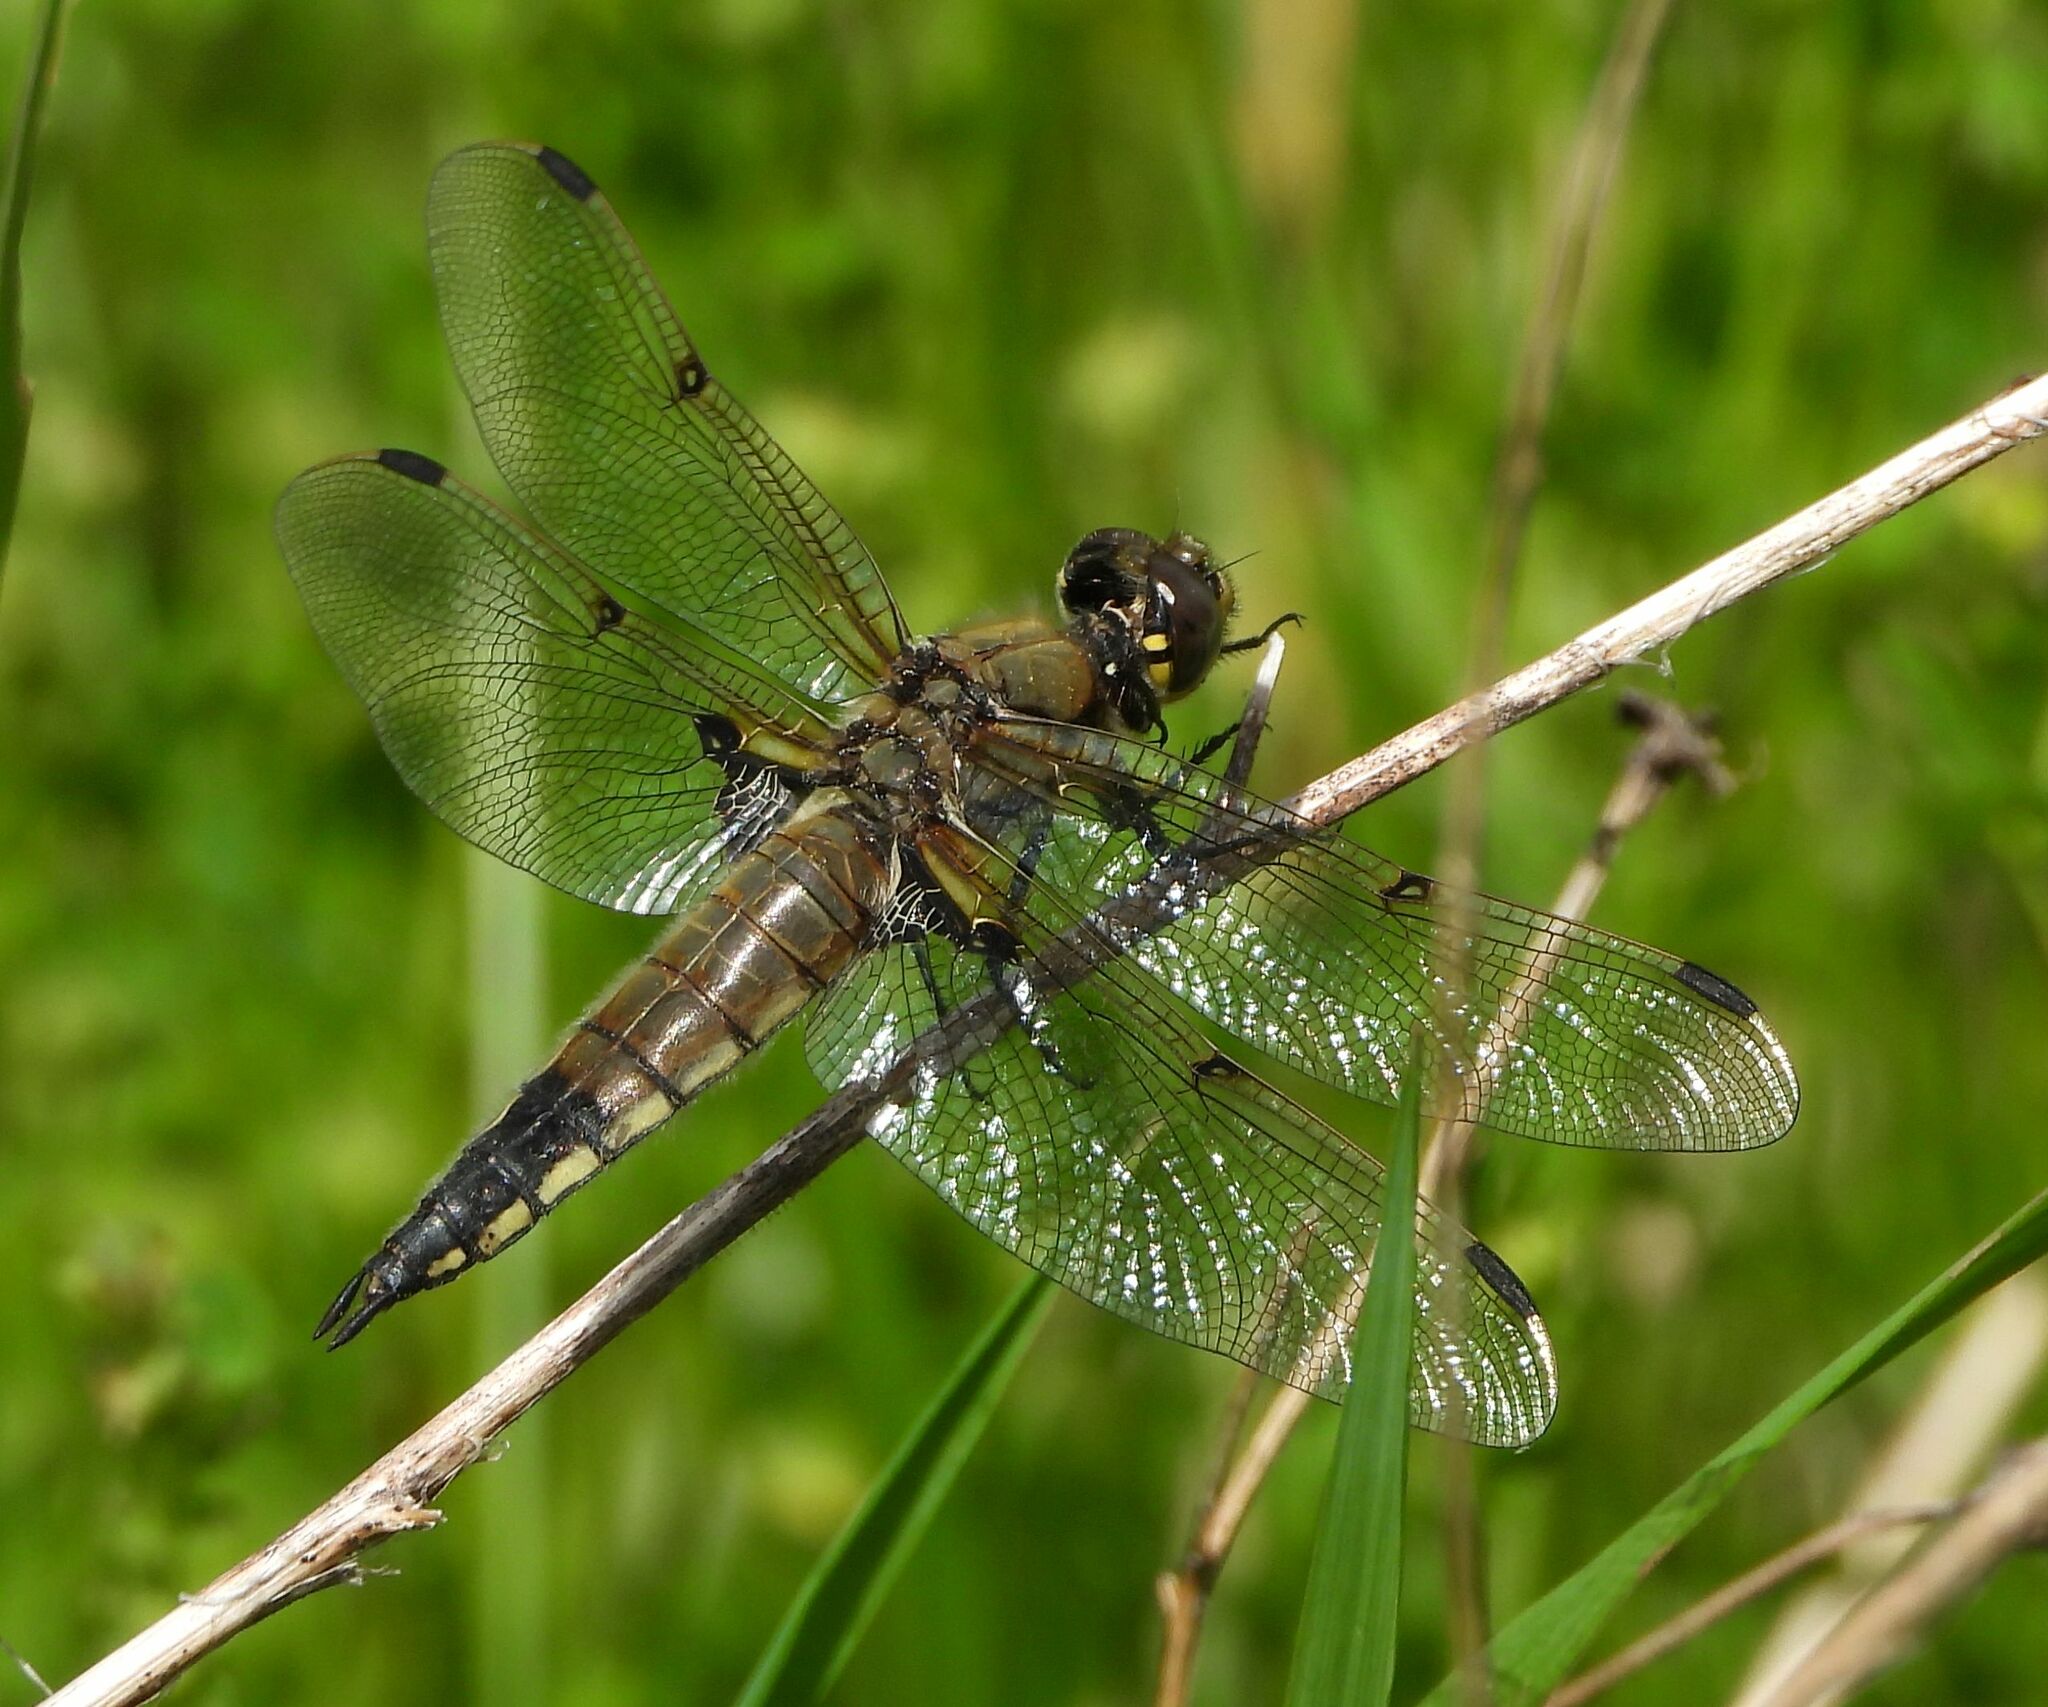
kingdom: Animalia
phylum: Arthropoda
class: Insecta
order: Odonata
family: Libellulidae
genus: Libellula
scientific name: Libellula quadrimaculata
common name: Four-spotted chaser
